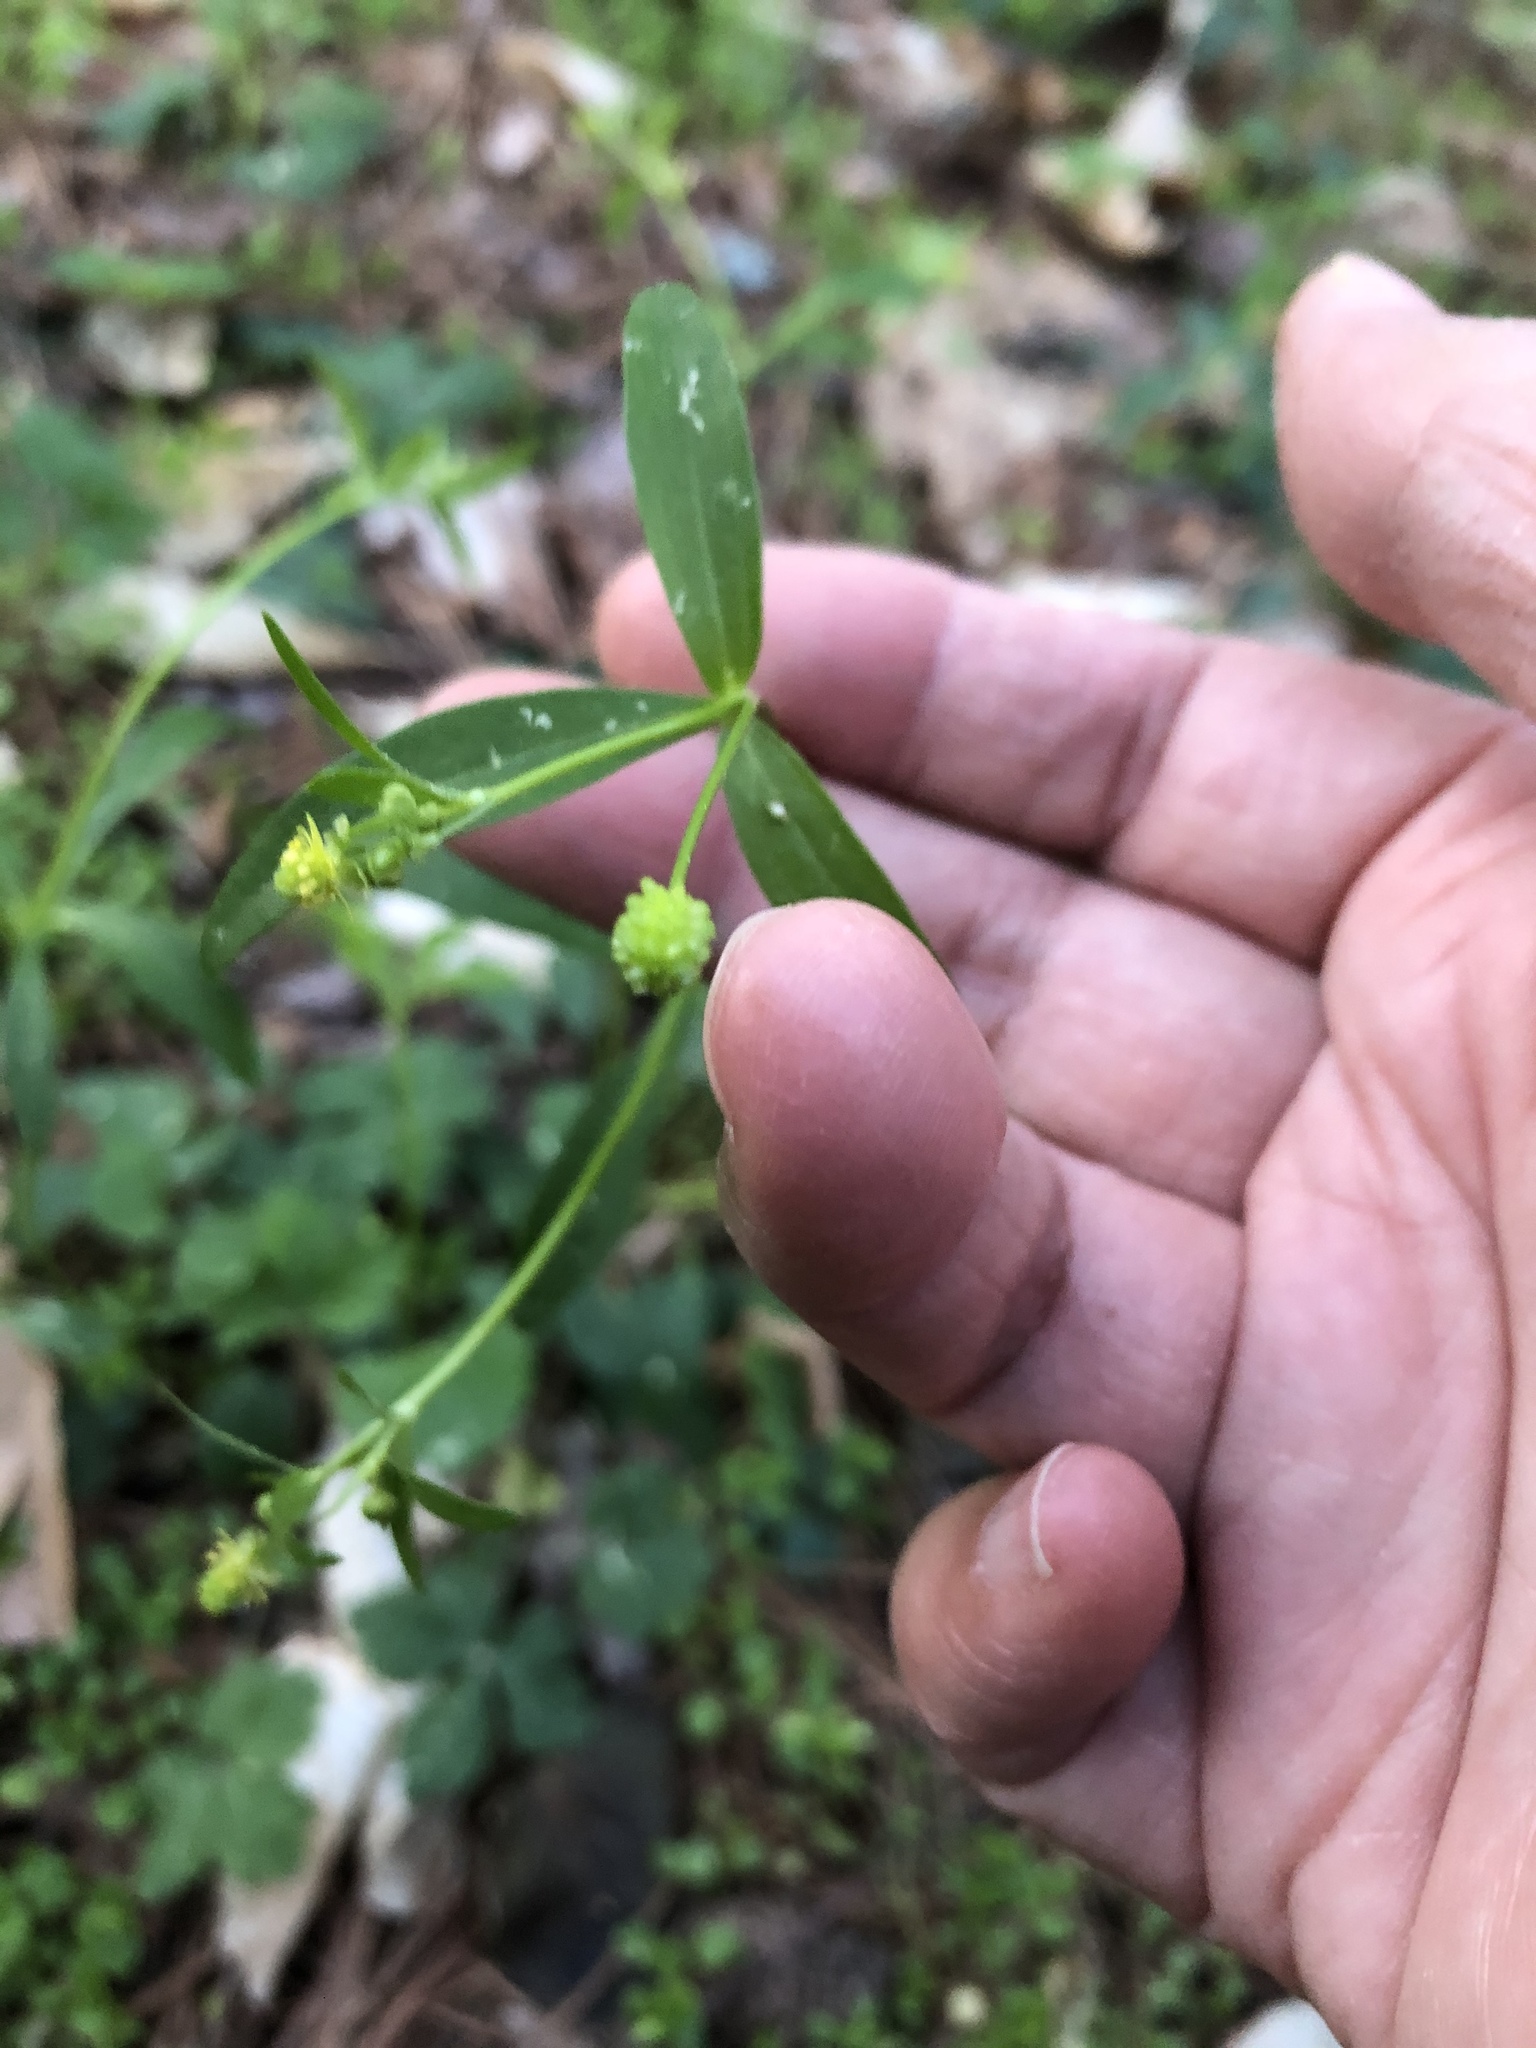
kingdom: Plantae
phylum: Tracheophyta
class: Magnoliopsida
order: Ranunculales
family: Ranunculaceae
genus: Ranunculus
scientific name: Ranunculus abortivus
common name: Early wood buttercup
